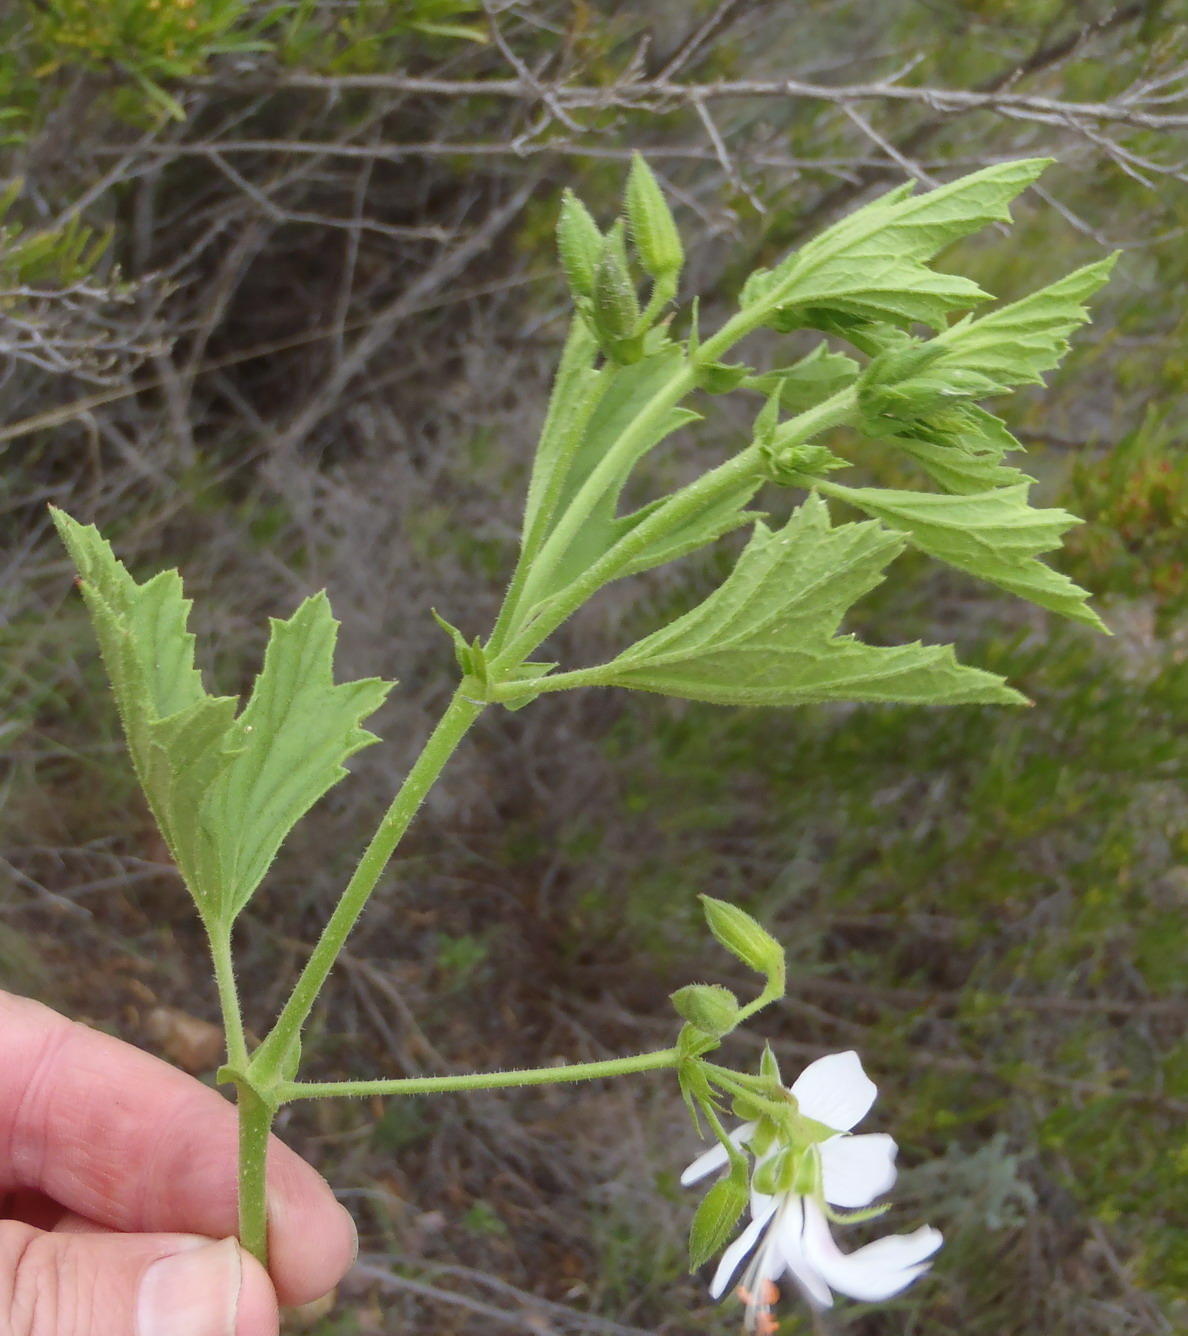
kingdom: Plantae
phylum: Tracheophyta
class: Magnoliopsida
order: Geraniales
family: Geraniaceae
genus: Pelargonium
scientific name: Pelargonium ribifolium
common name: Currant-leaf pelargonium
